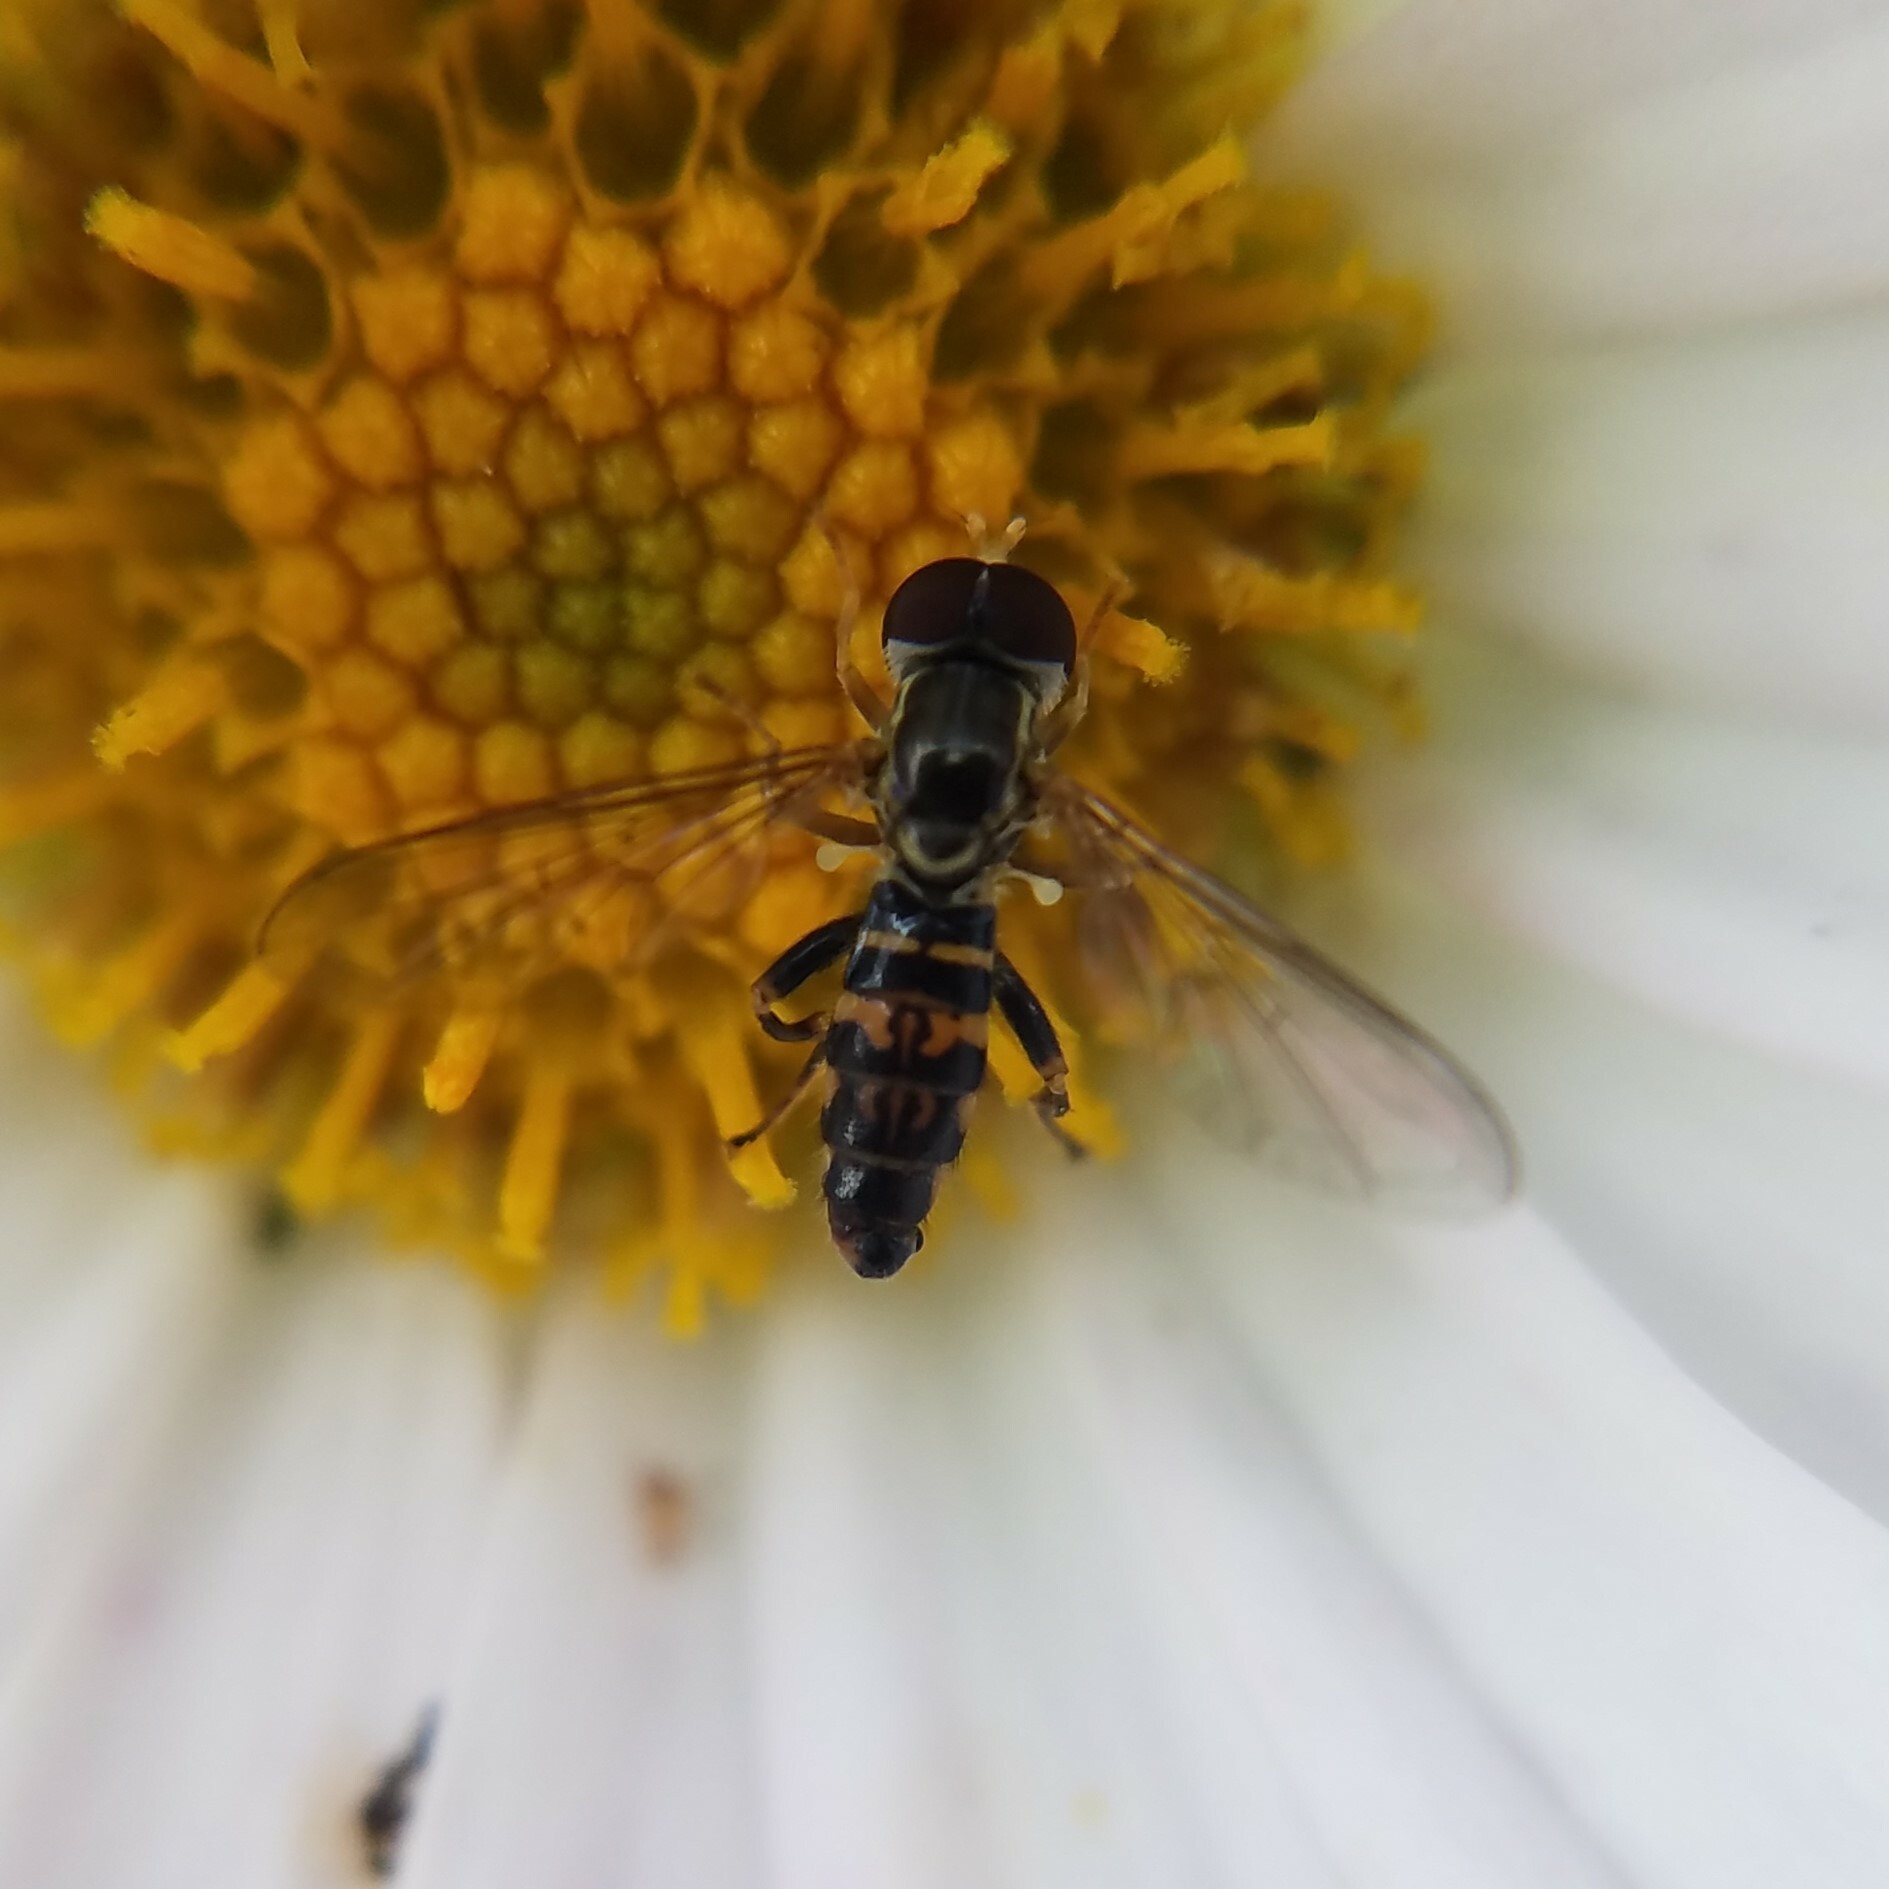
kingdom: Animalia
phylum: Arthropoda
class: Insecta
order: Diptera
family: Syrphidae
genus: Toxomerus
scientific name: Toxomerus geminatus
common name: Eastern calligrapher
